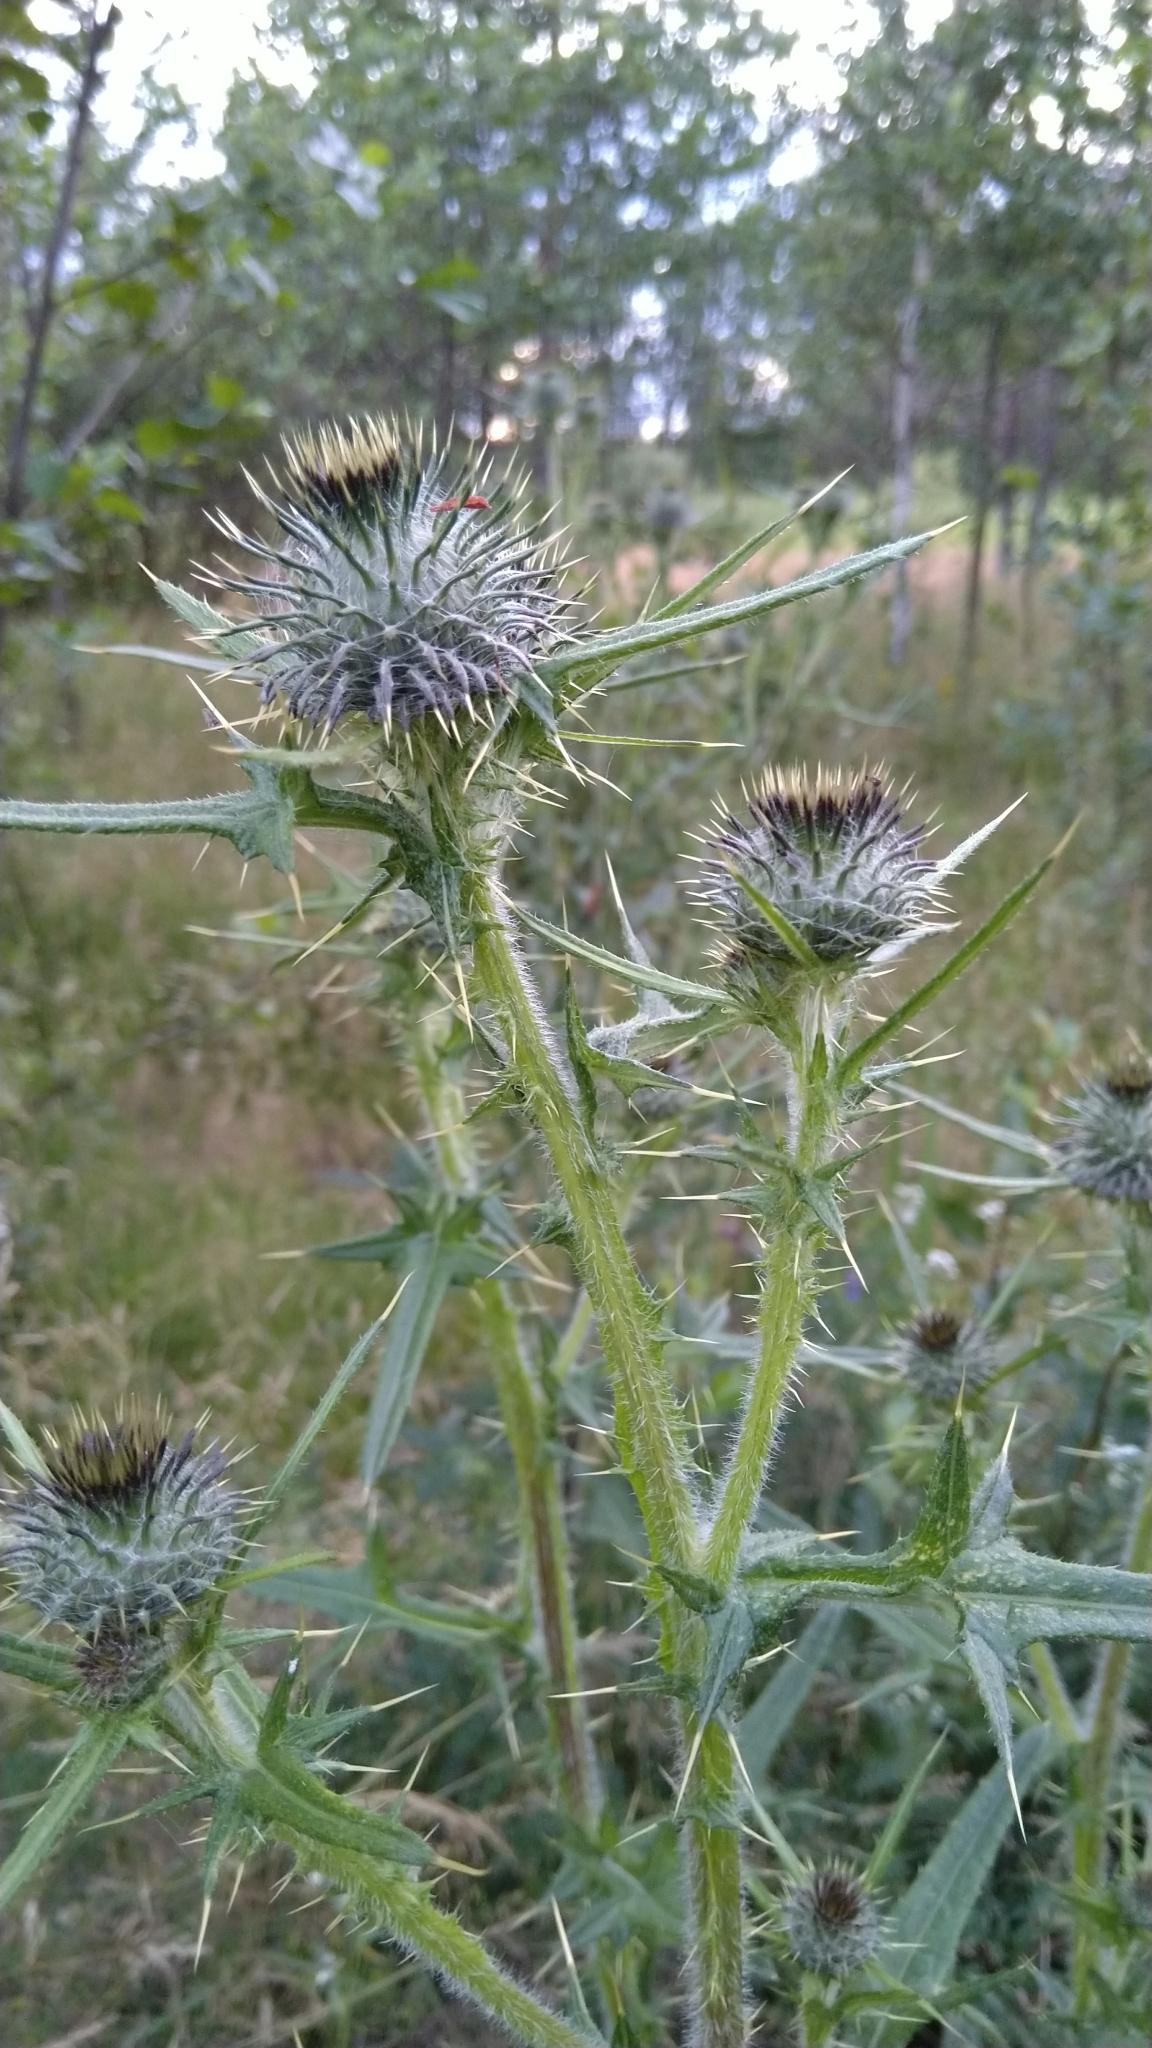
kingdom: Plantae
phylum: Tracheophyta
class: Magnoliopsida
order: Asterales
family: Asteraceae
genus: Cirsium
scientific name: Cirsium vulgare
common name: Bull thistle
